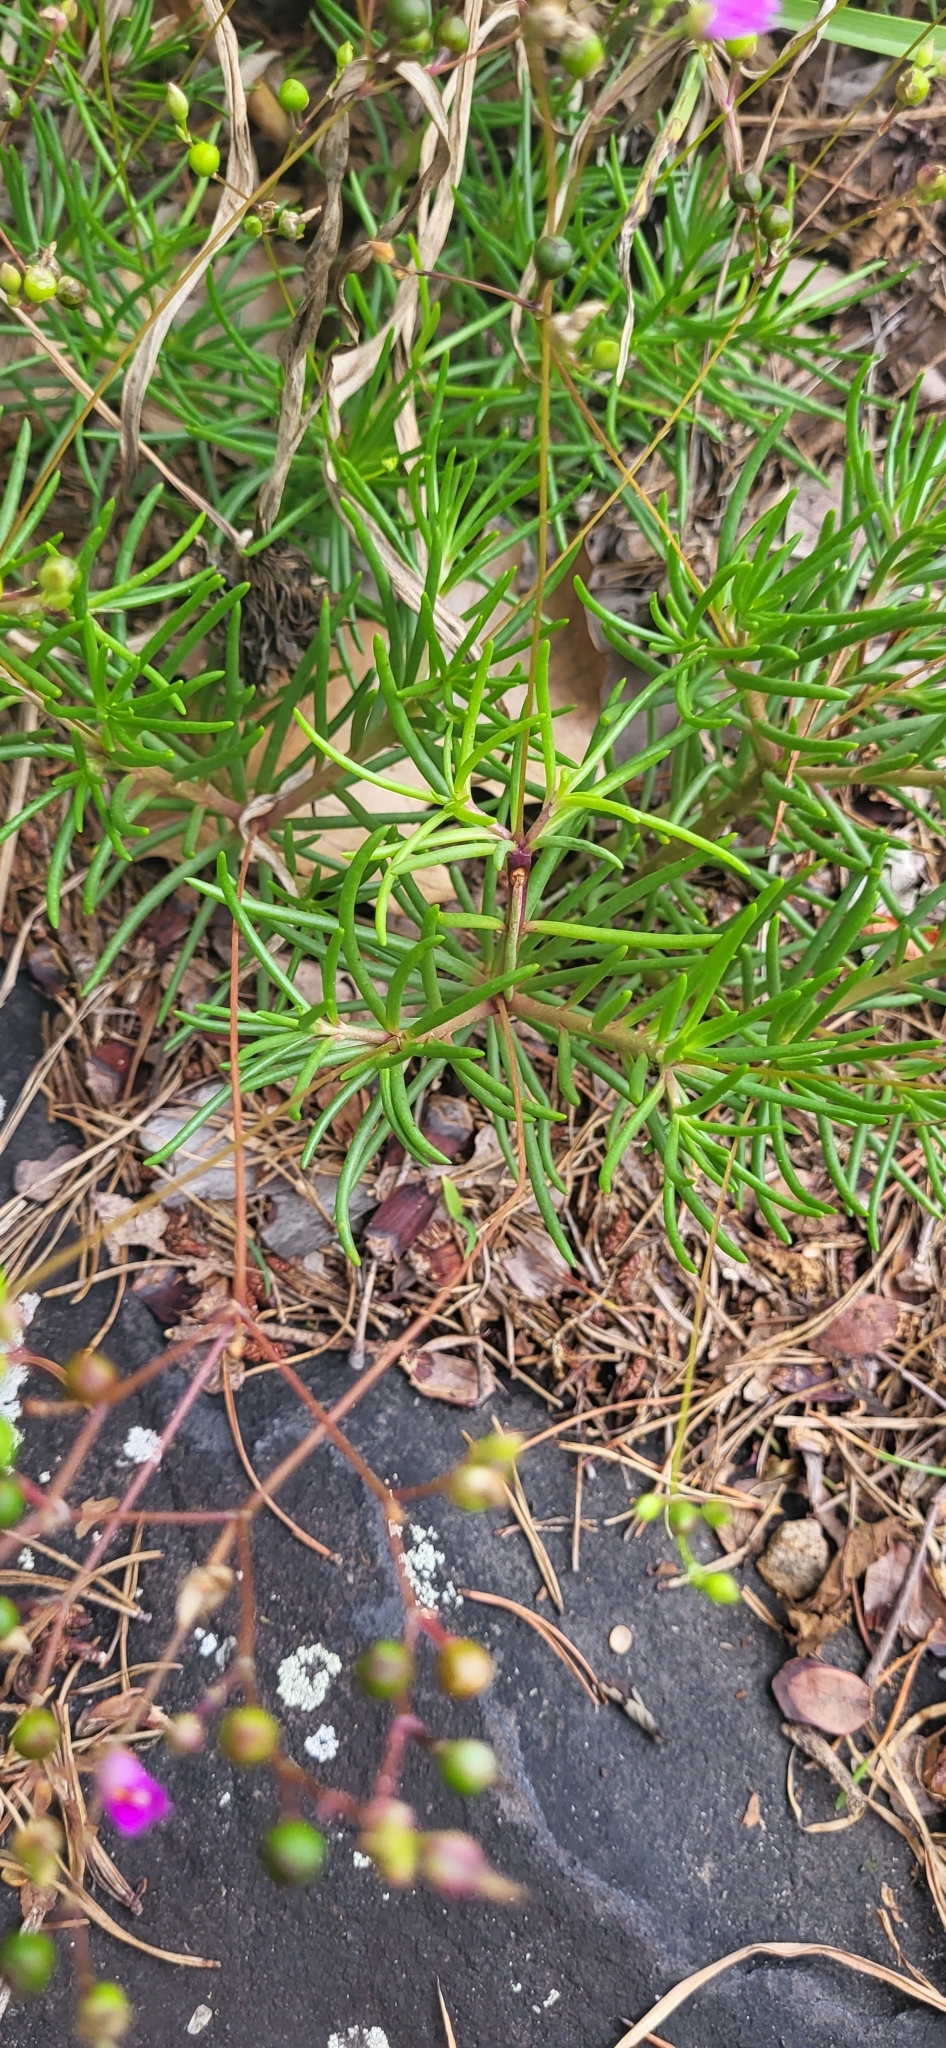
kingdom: Plantae
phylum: Tracheophyta
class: Magnoliopsida
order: Caryophyllales
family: Montiaceae
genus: Phemeranthus
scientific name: Phemeranthus mengesii
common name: Menges' fameflower
